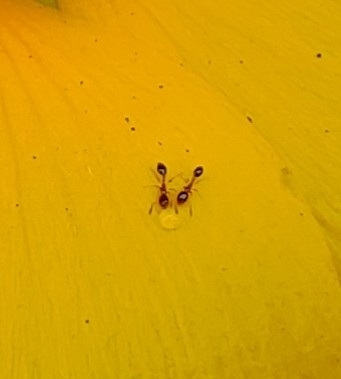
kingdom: Animalia
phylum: Arthropoda
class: Insecta
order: Hymenoptera
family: Formicidae
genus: Monomorium
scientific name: Monomorium floricola
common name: Bicolored trailing ant
